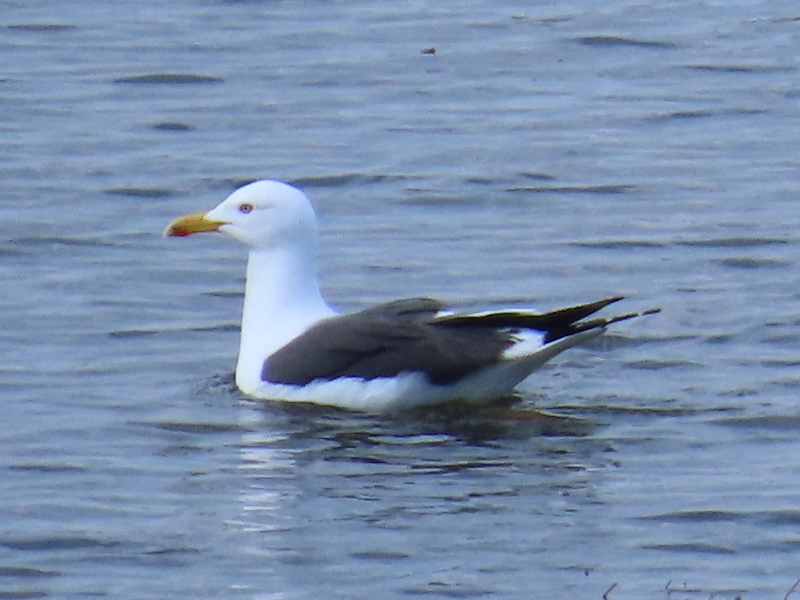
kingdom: Animalia
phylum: Chordata
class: Aves
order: Charadriiformes
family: Laridae
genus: Larus
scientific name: Larus fuscus
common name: Lesser black-backed gull
